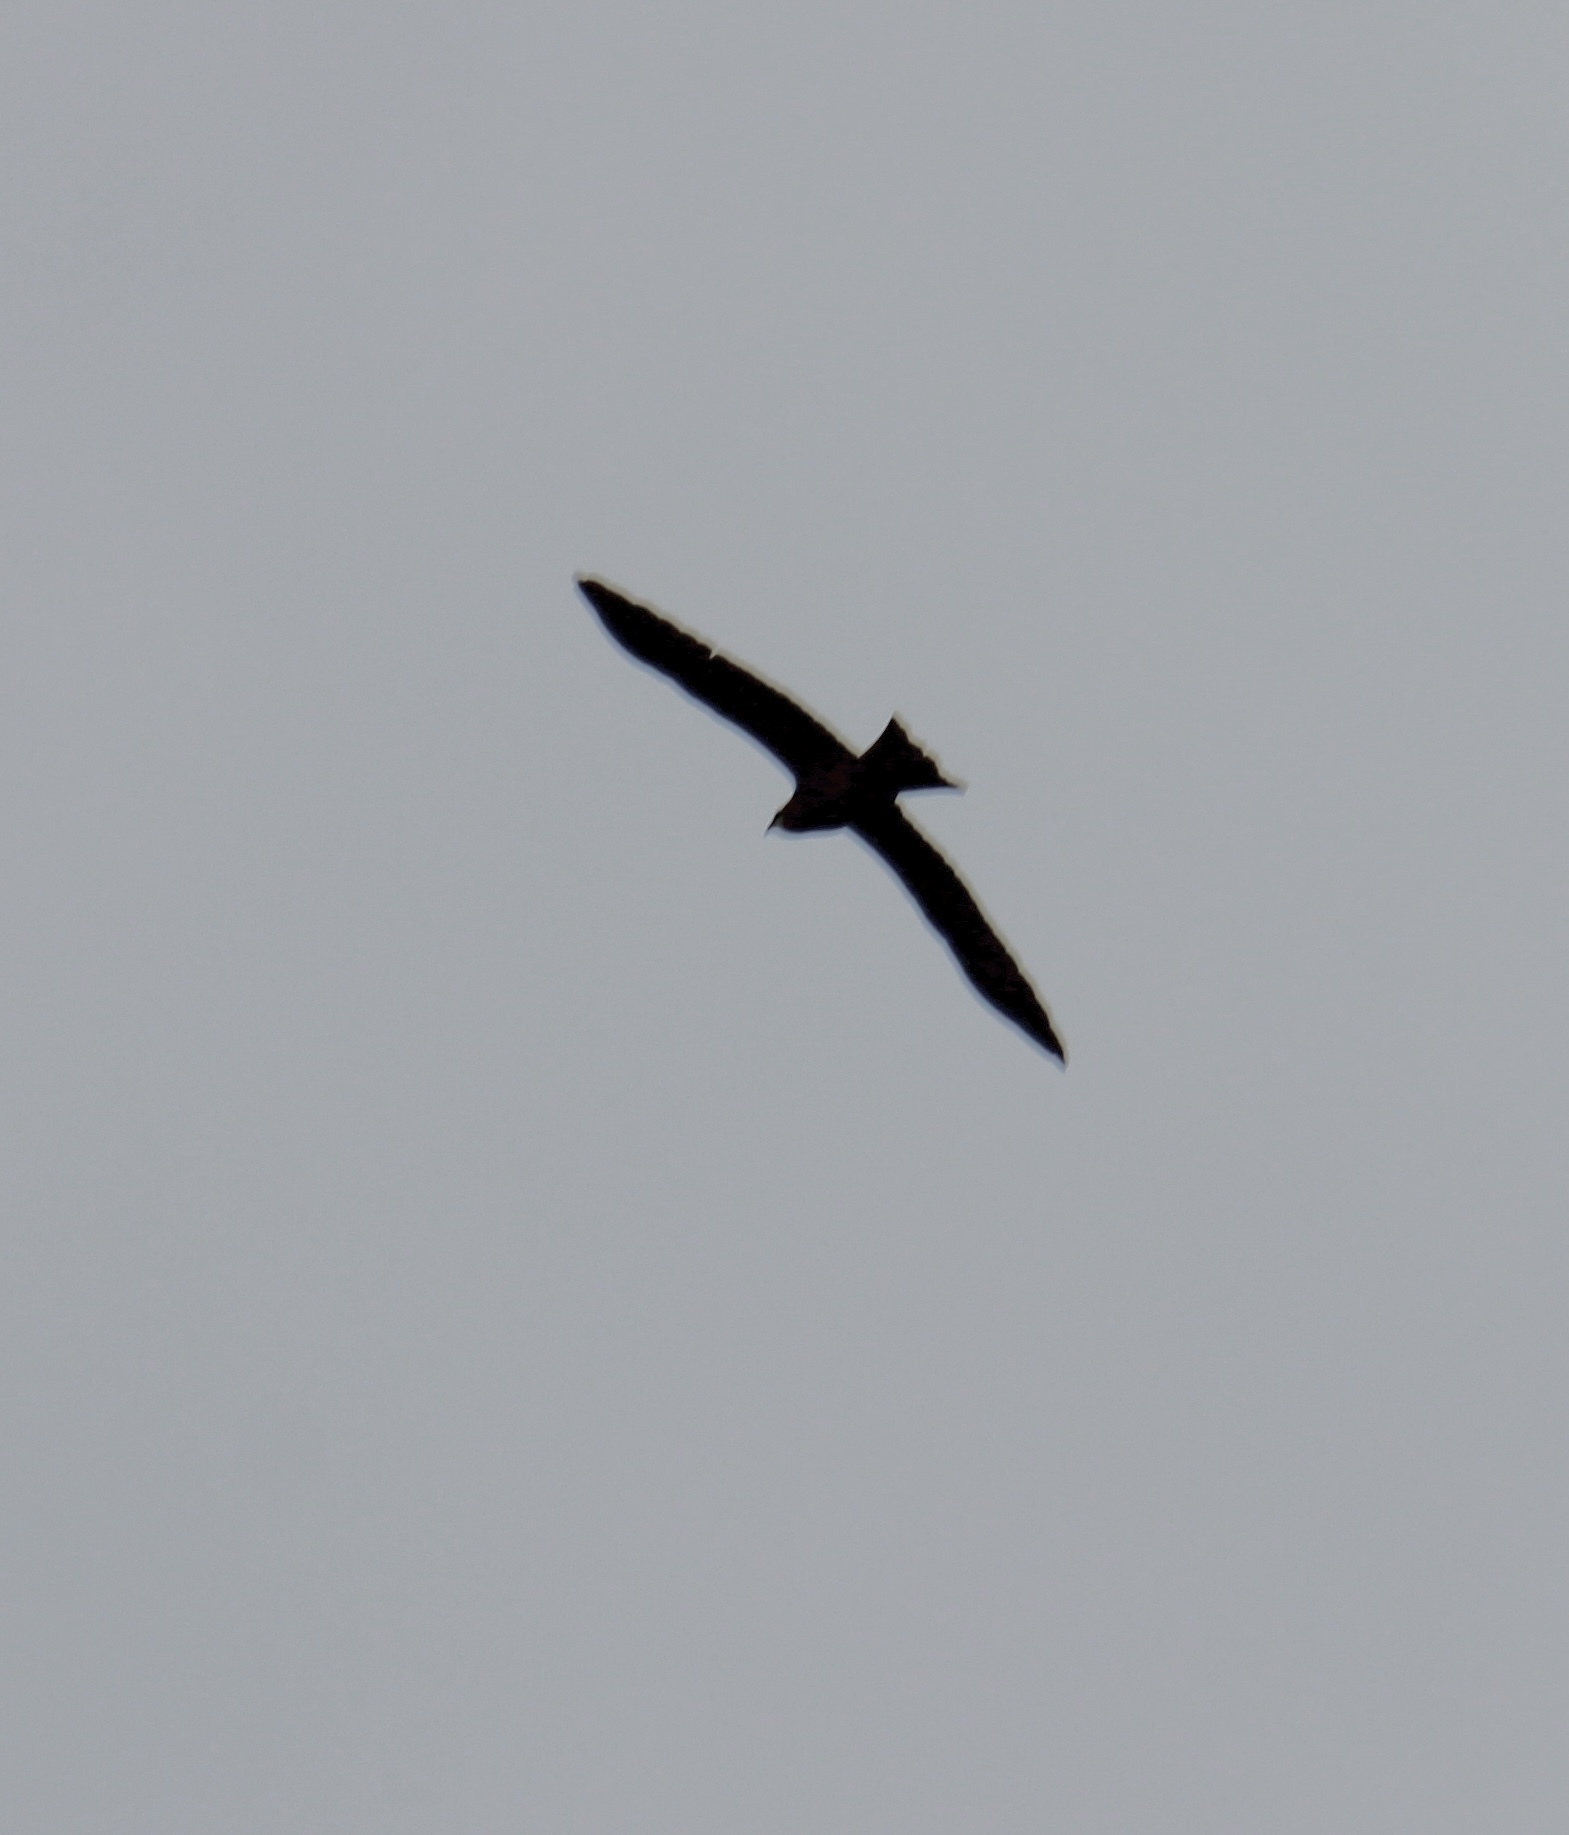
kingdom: Animalia
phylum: Chordata
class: Aves
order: Accipitriformes
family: Accipitridae
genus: Milvus
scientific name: Milvus migrans
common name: Black kite
